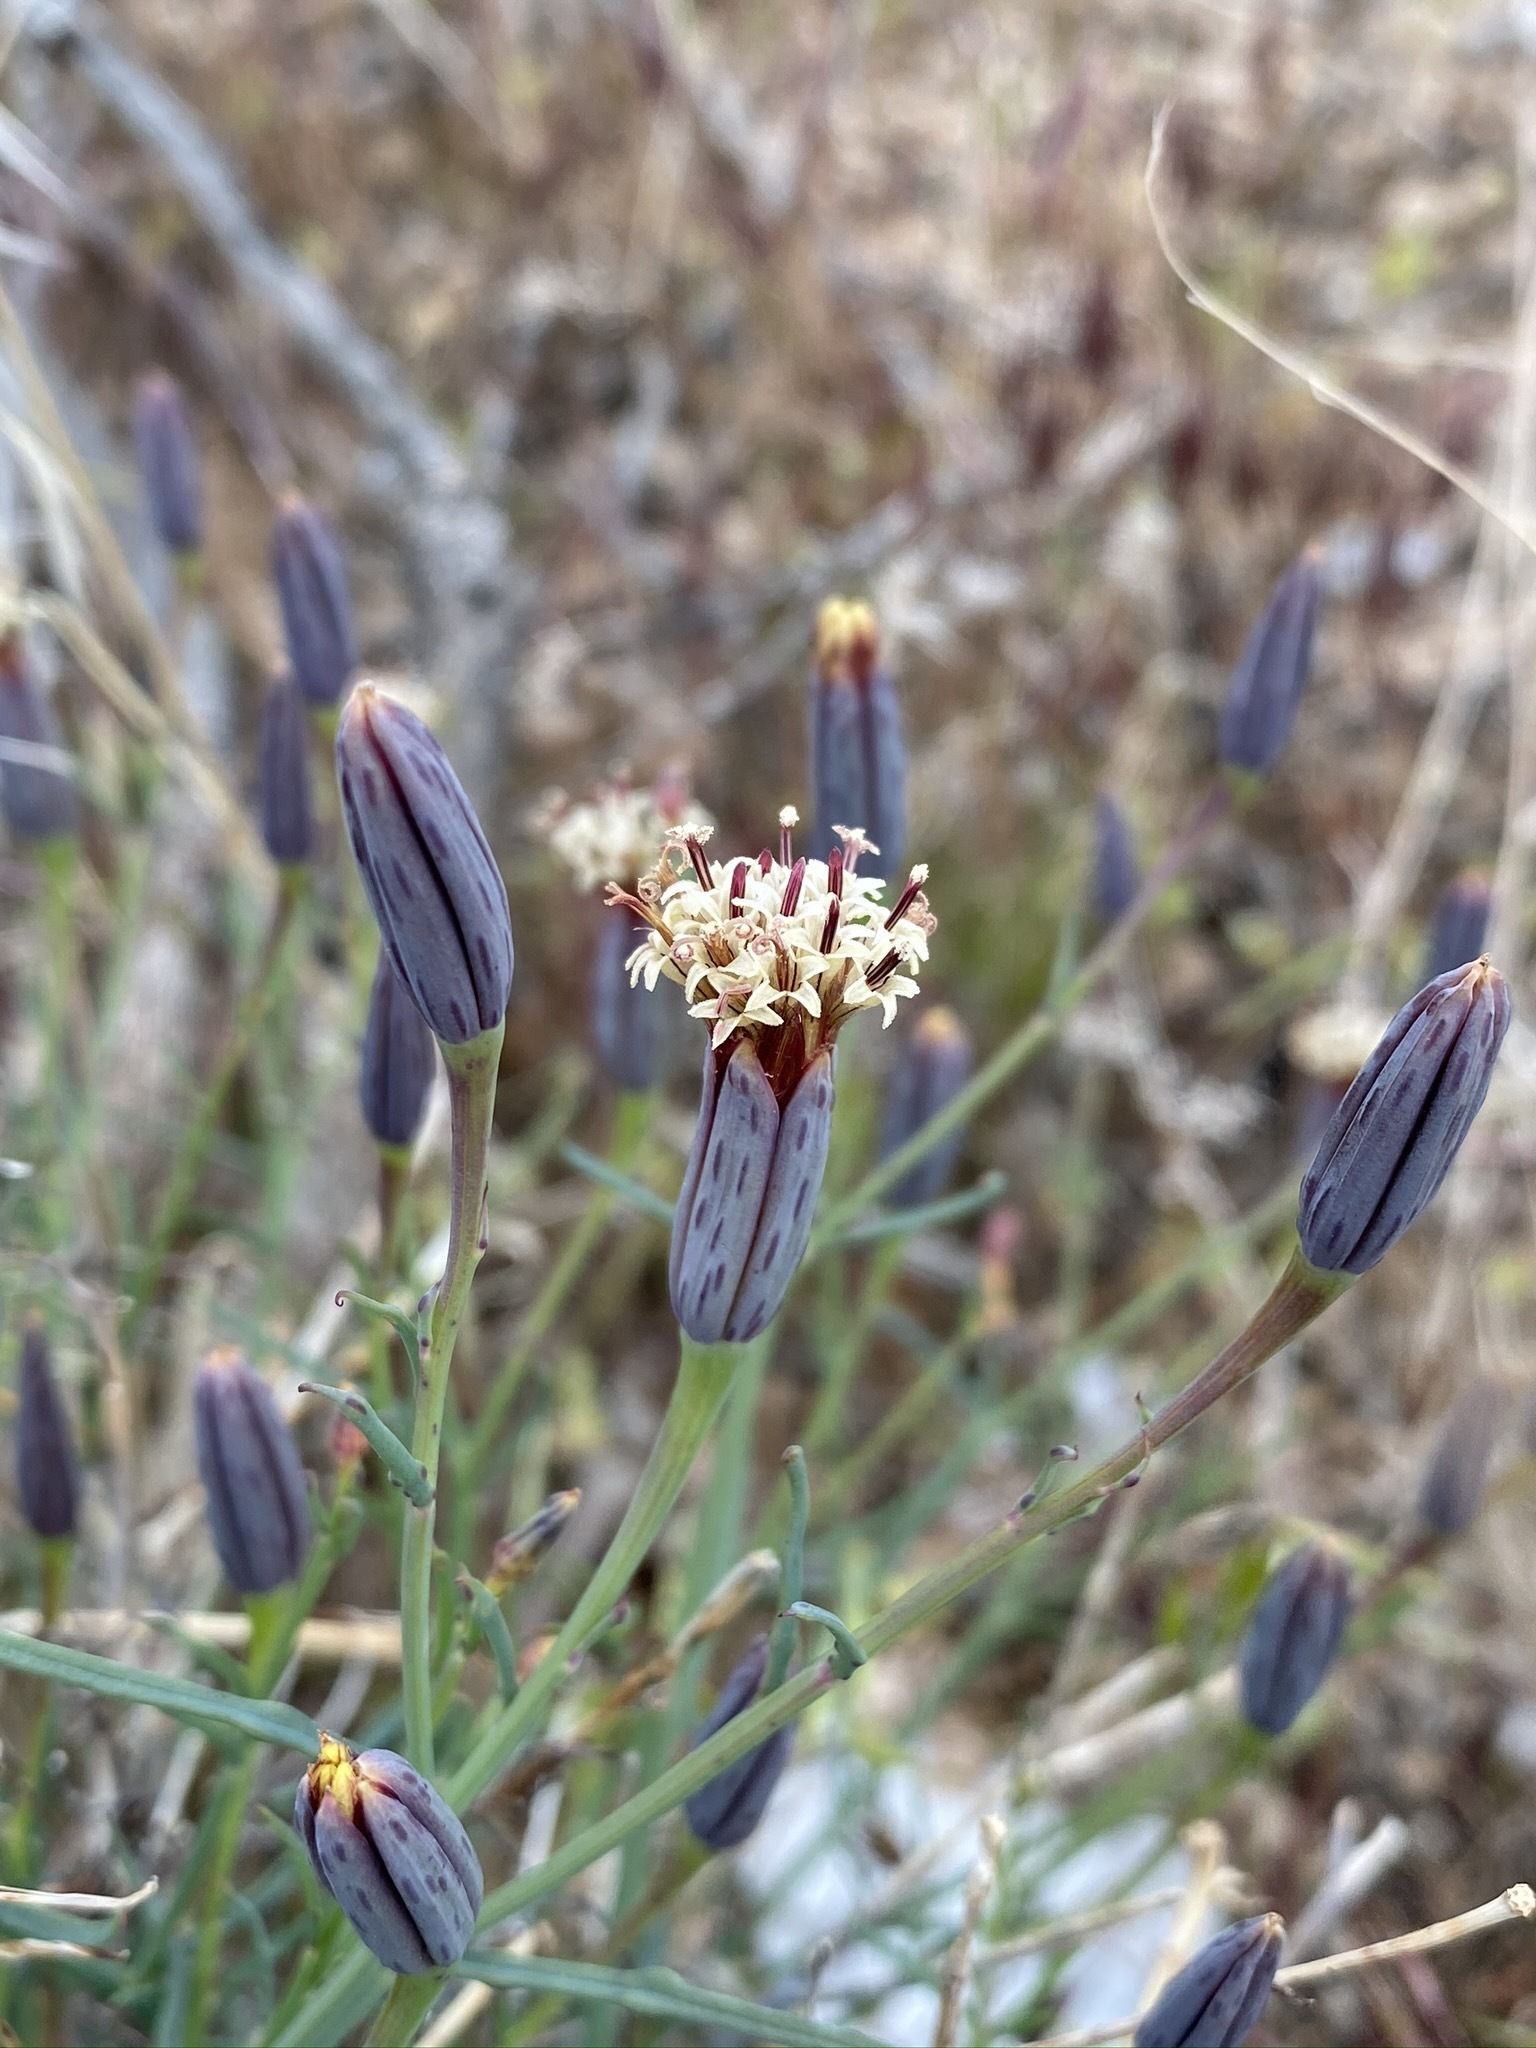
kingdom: Plantae
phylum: Tracheophyta
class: Magnoliopsida
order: Asterales
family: Asteraceae
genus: Porophyllum
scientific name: Porophyllum gracile
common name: Odora
